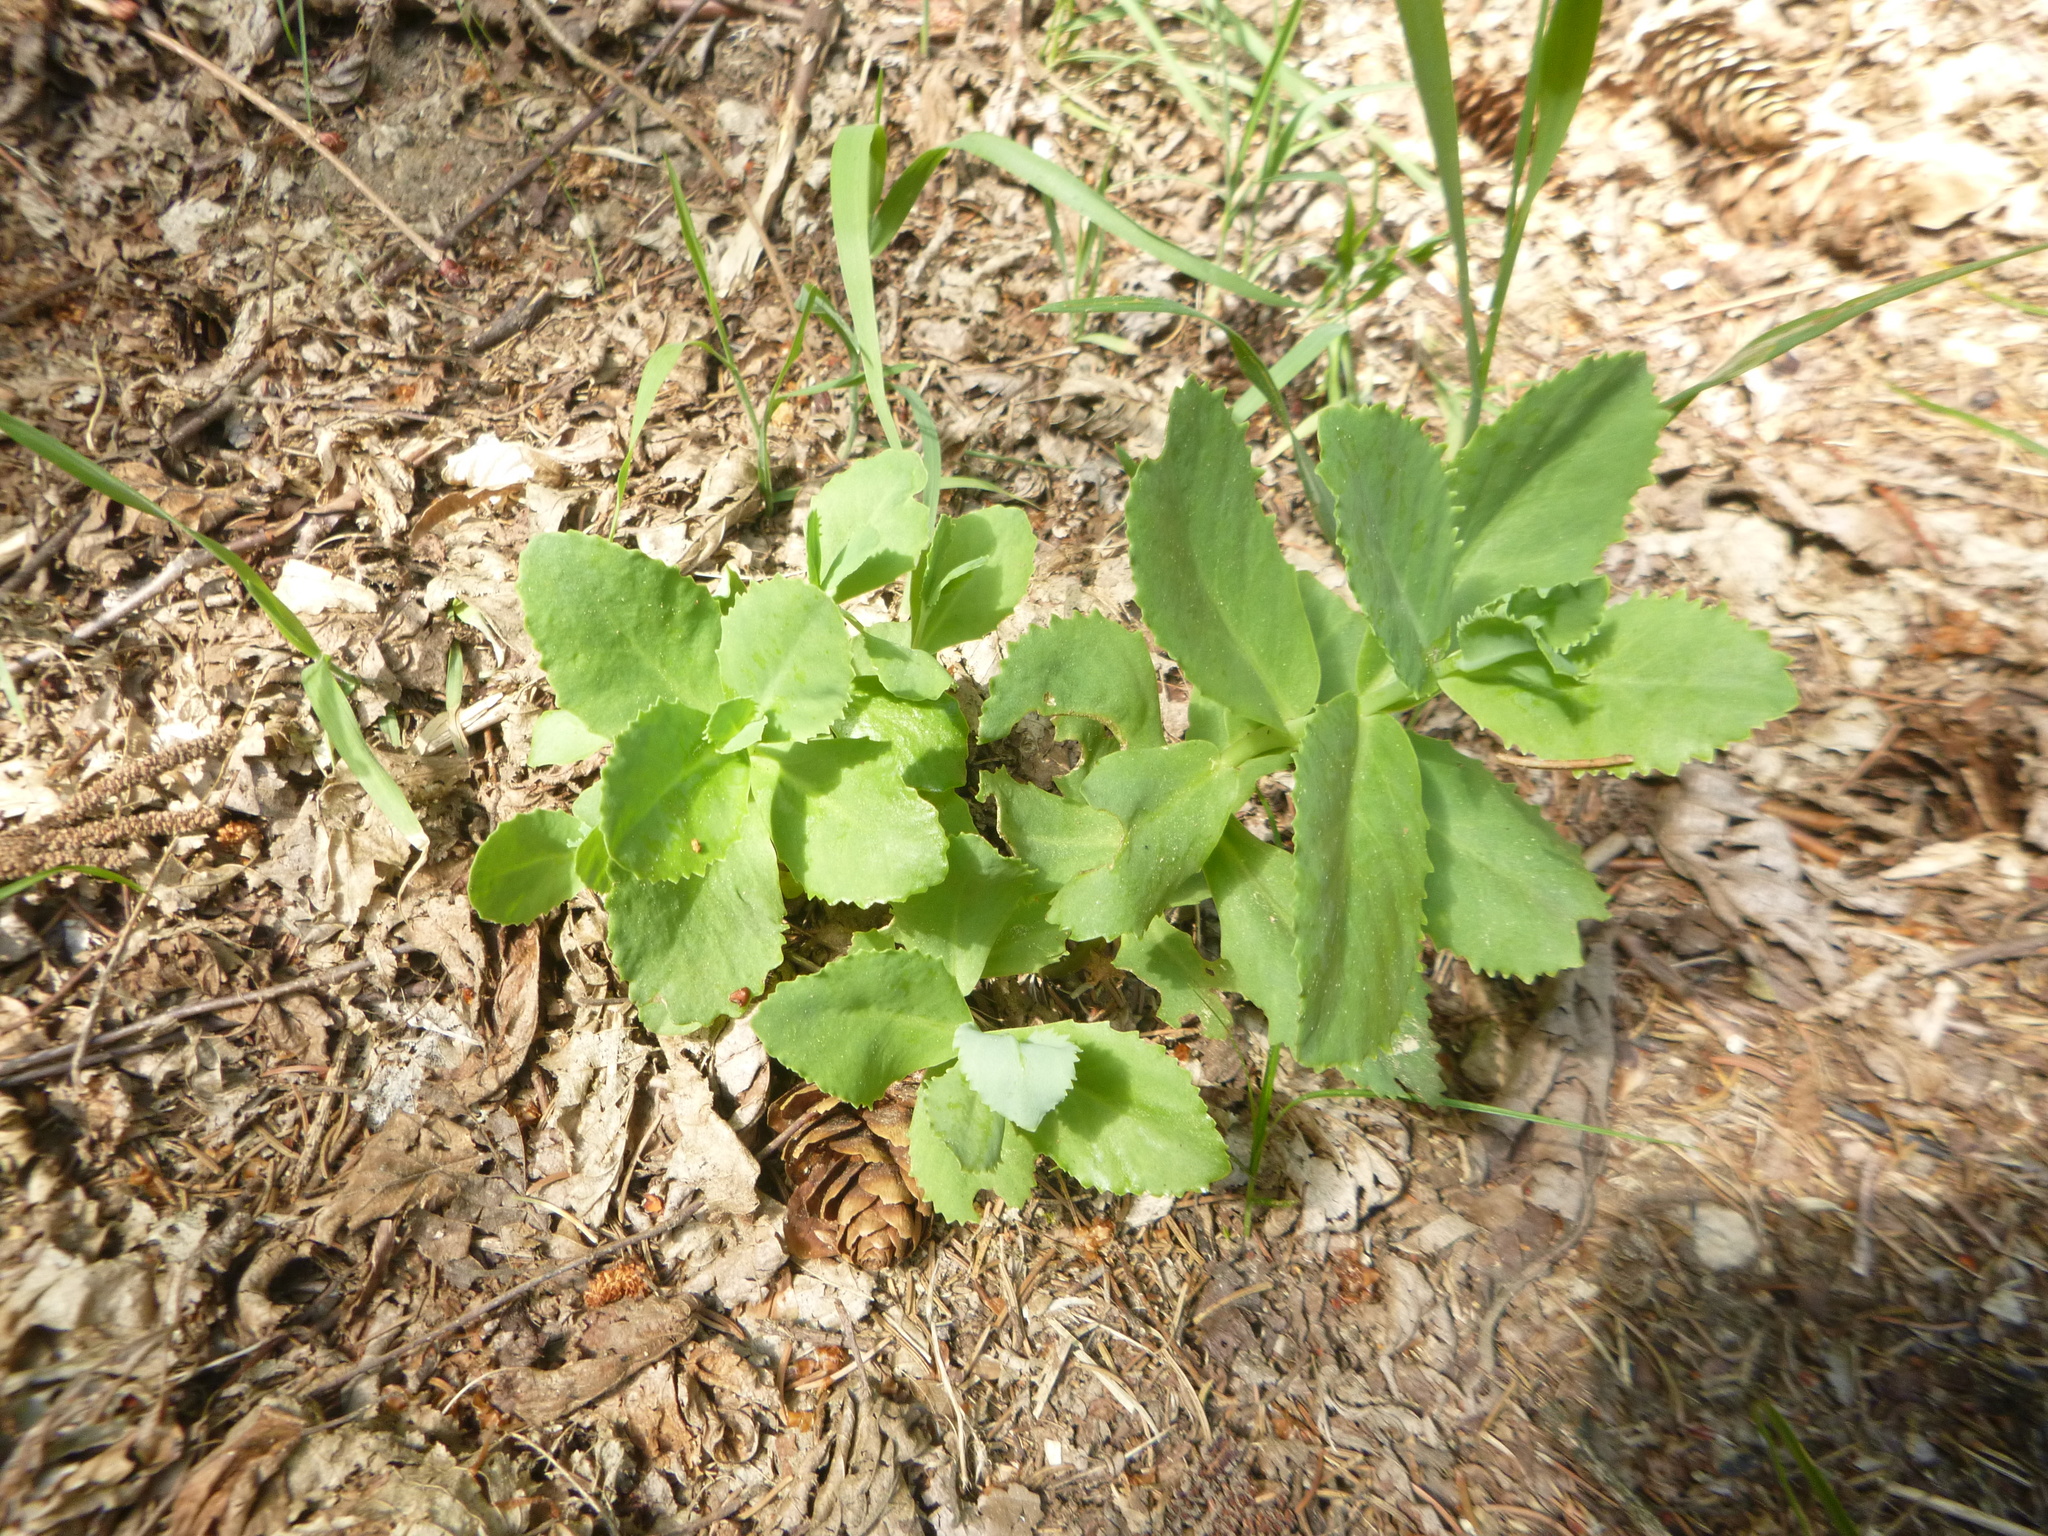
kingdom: Plantae
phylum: Tracheophyta
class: Magnoliopsida
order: Saxifragales
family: Crassulaceae
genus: Hylotelephium
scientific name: Hylotelephium maximum
